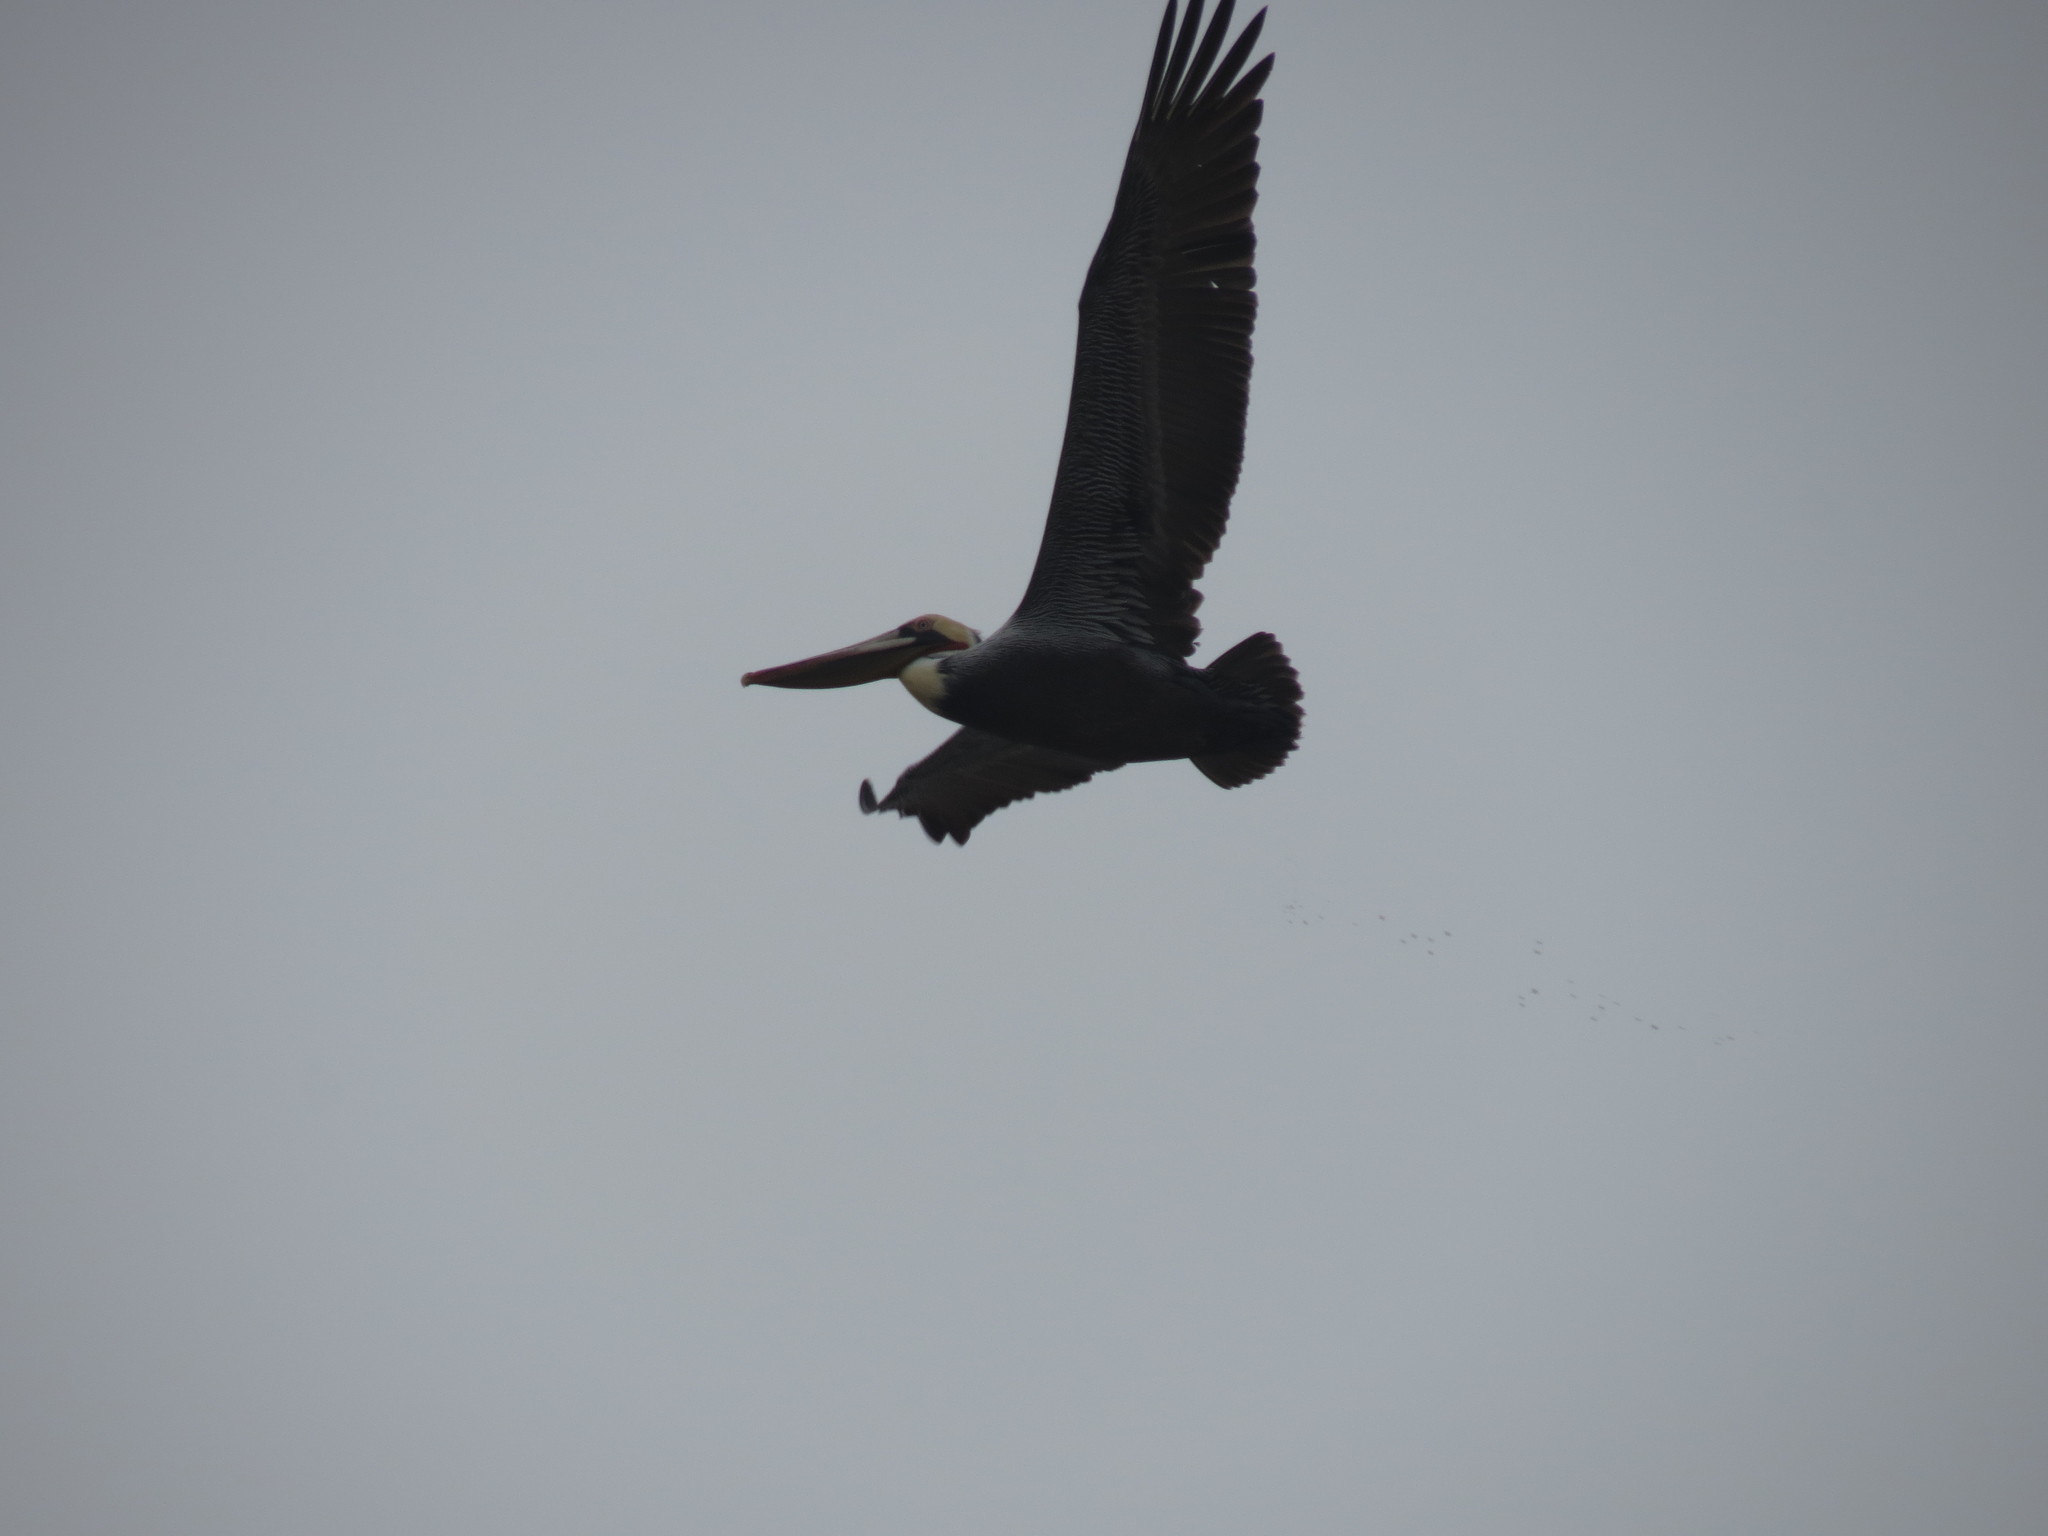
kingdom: Animalia
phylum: Chordata
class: Aves
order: Pelecaniformes
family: Pelecanidae
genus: Pelecanus
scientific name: Pelecanus occidentalis
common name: Brown pelican
